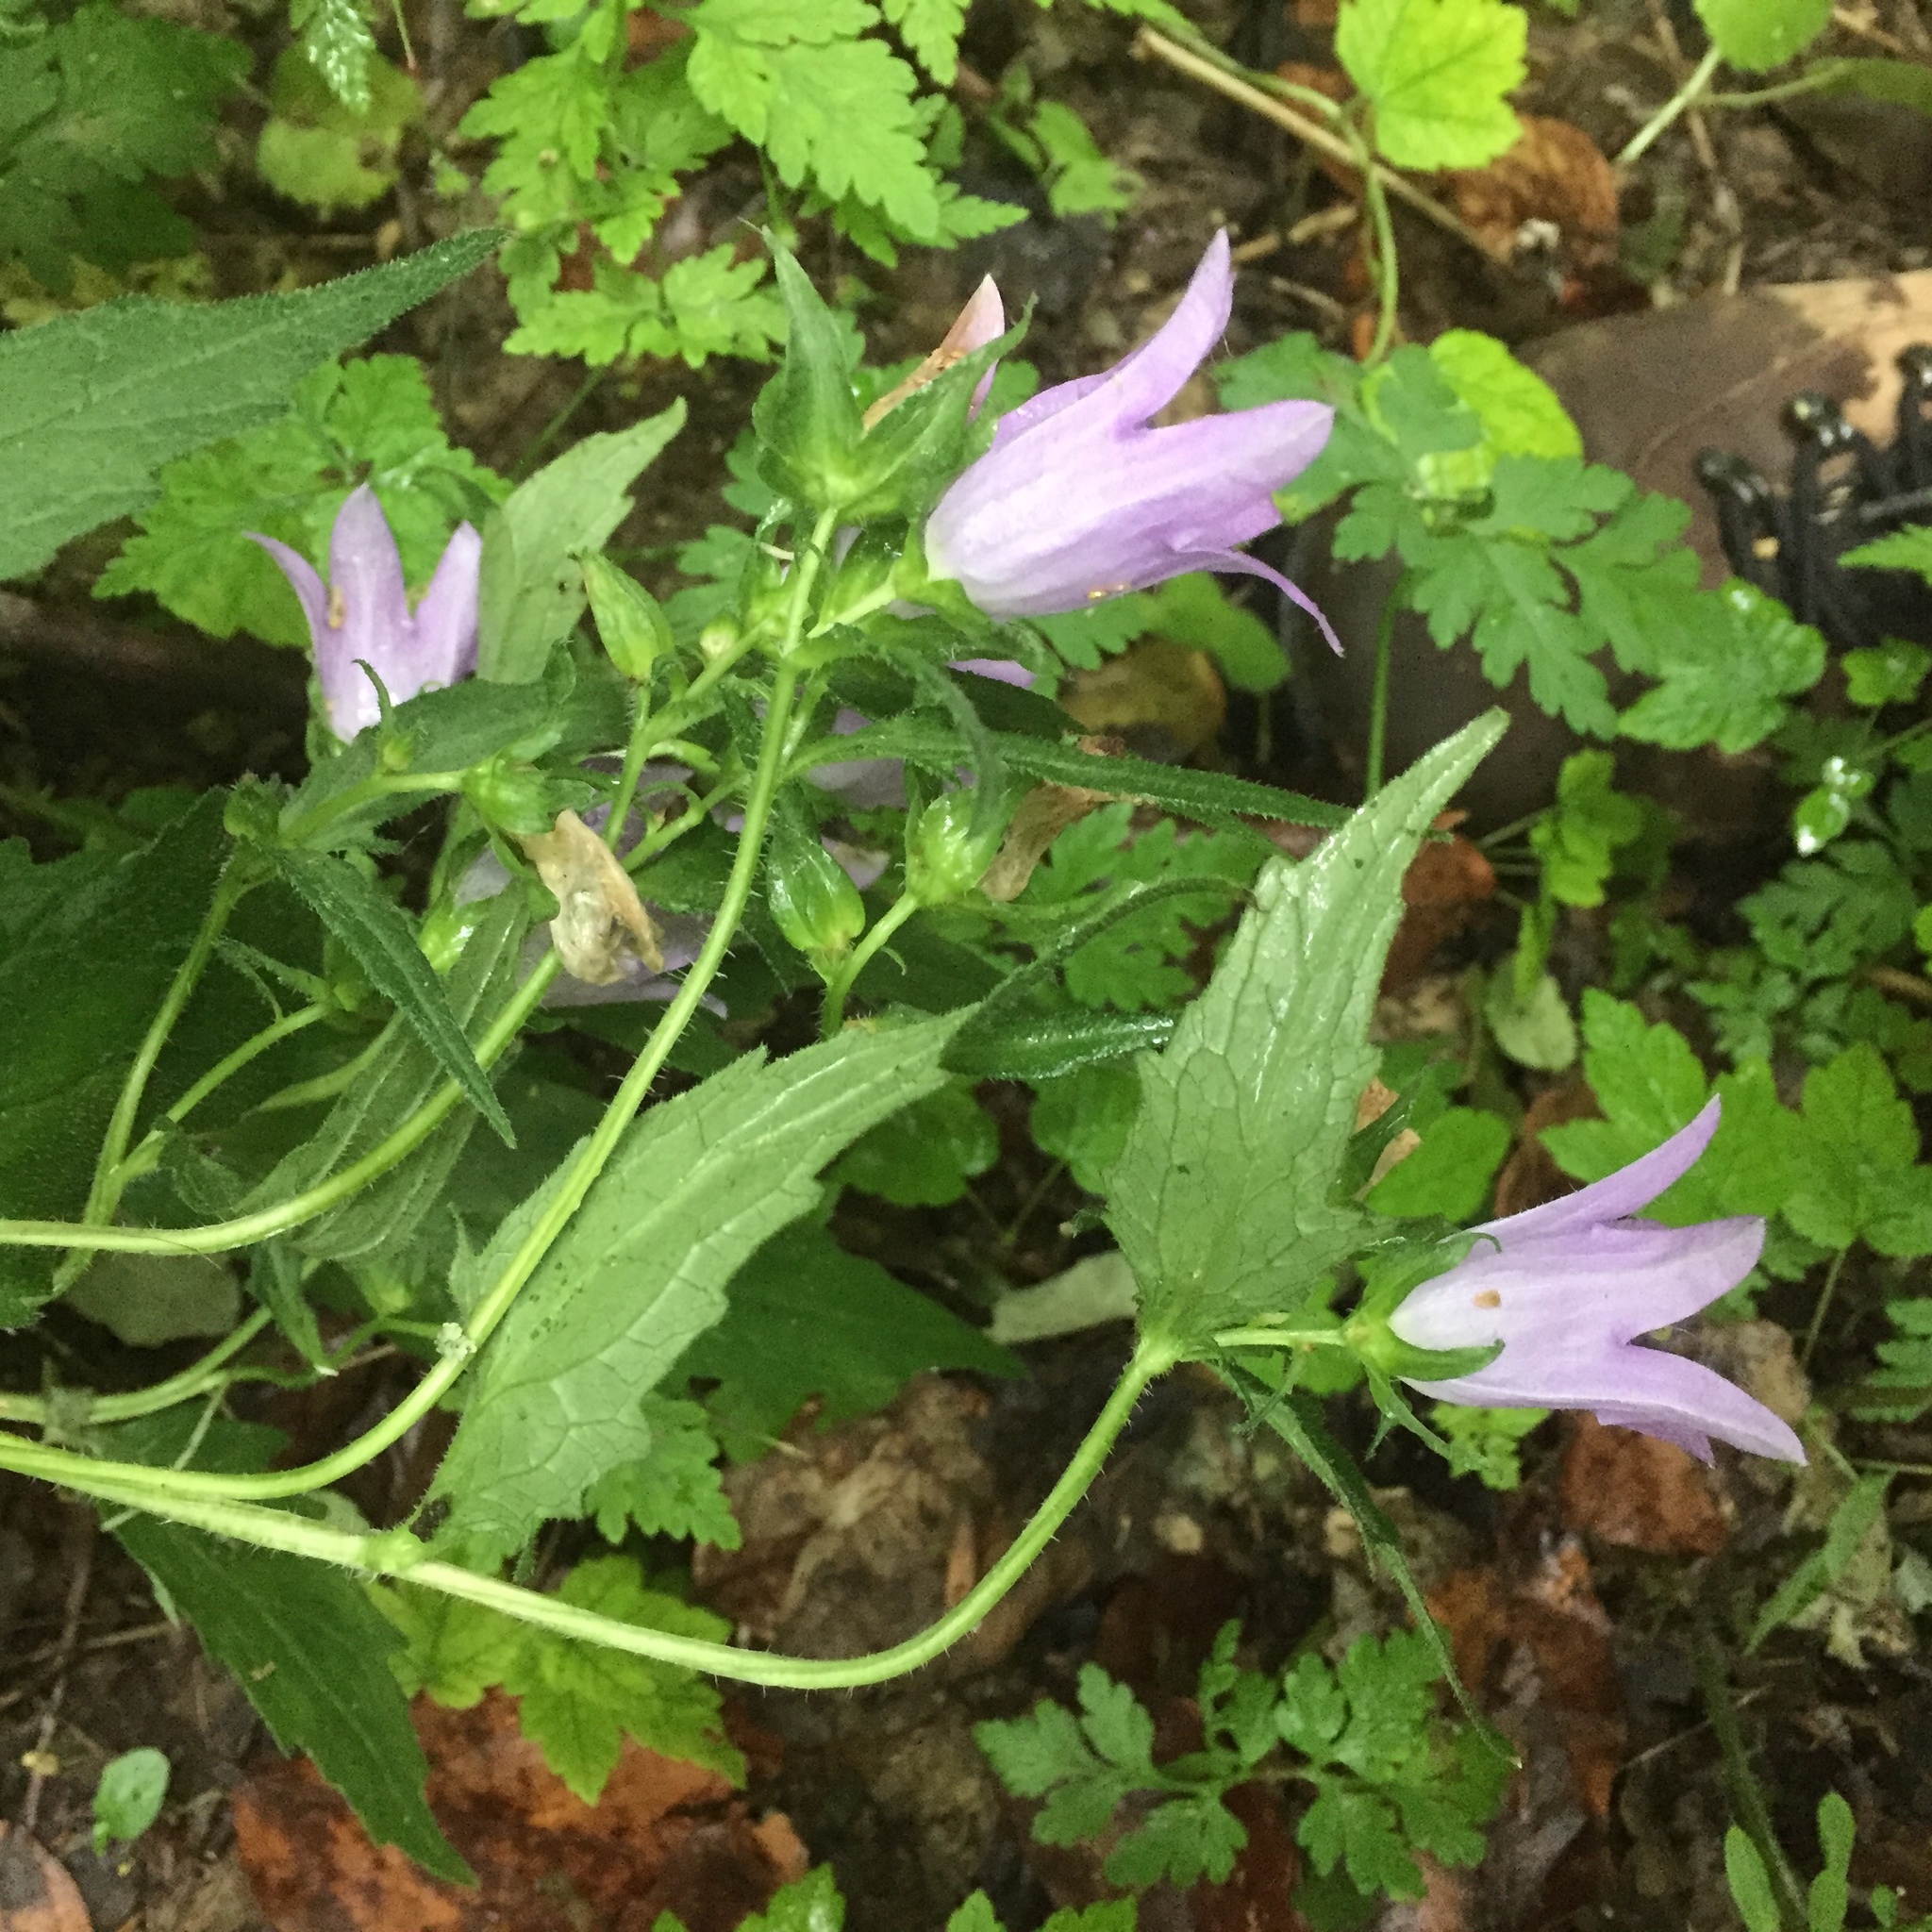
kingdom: Plantae
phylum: Tracheophyta
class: Magnoliopsida
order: Asterales
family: Campanulaceae
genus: Campanula
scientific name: Campanula trachelium
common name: Nettle-leaved bellflower
